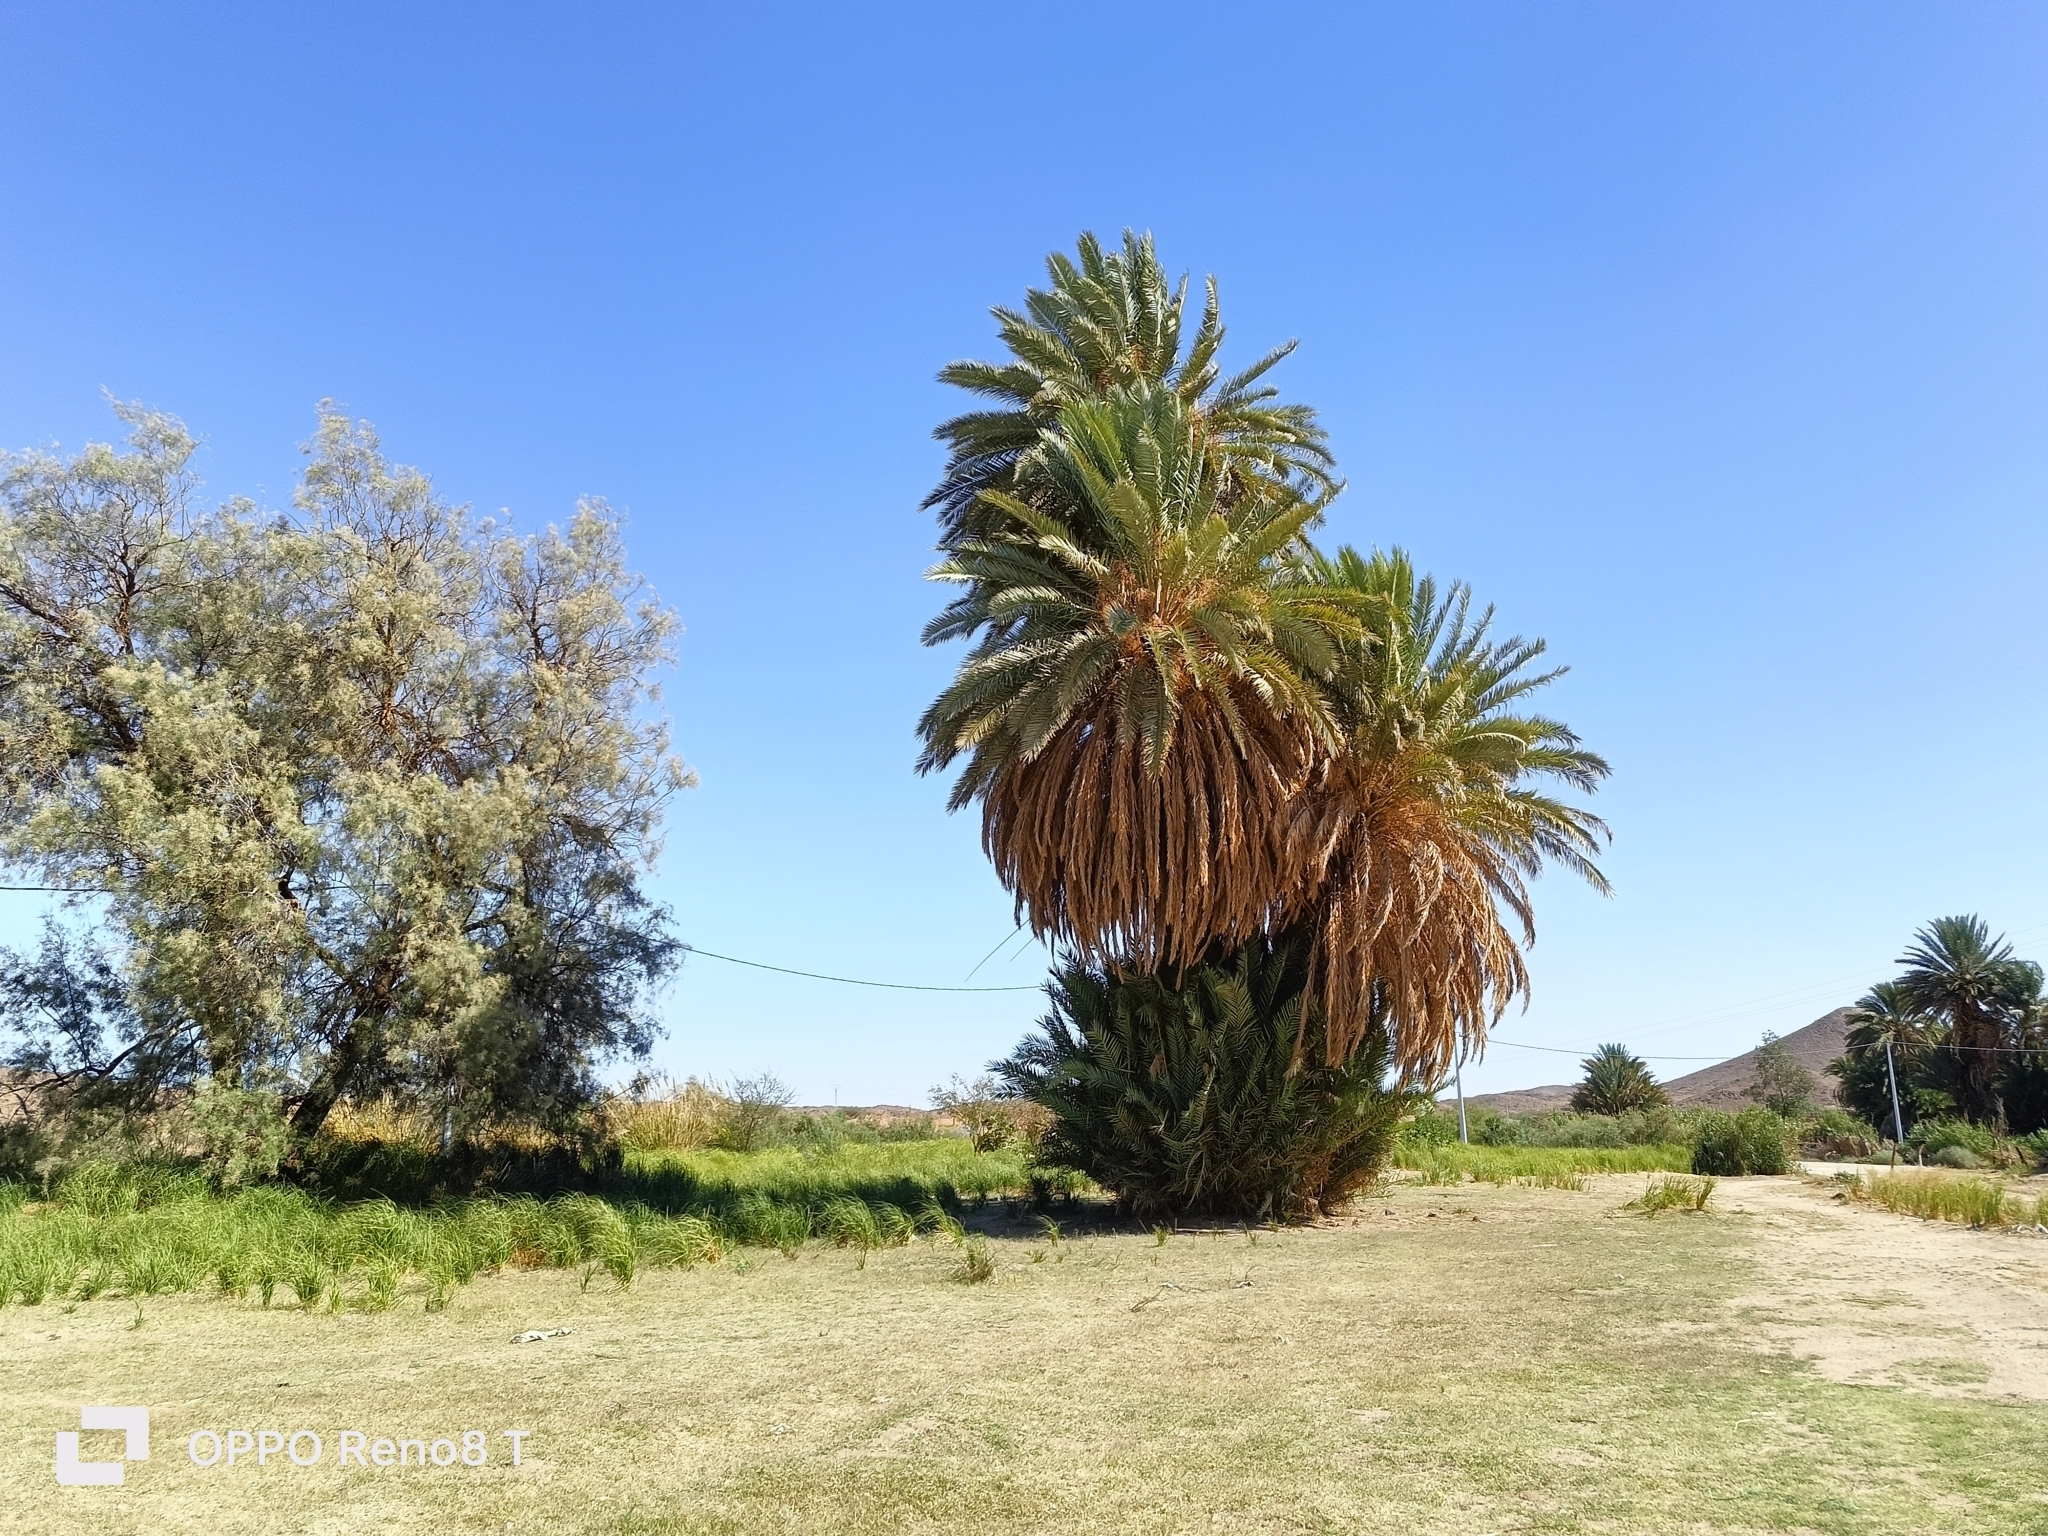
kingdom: Plantae
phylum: Tracheophyta
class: Liliopsida
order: Arecales
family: Arecaceae
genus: Phoenix
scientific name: Phoenix dactylifera
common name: Date palm
